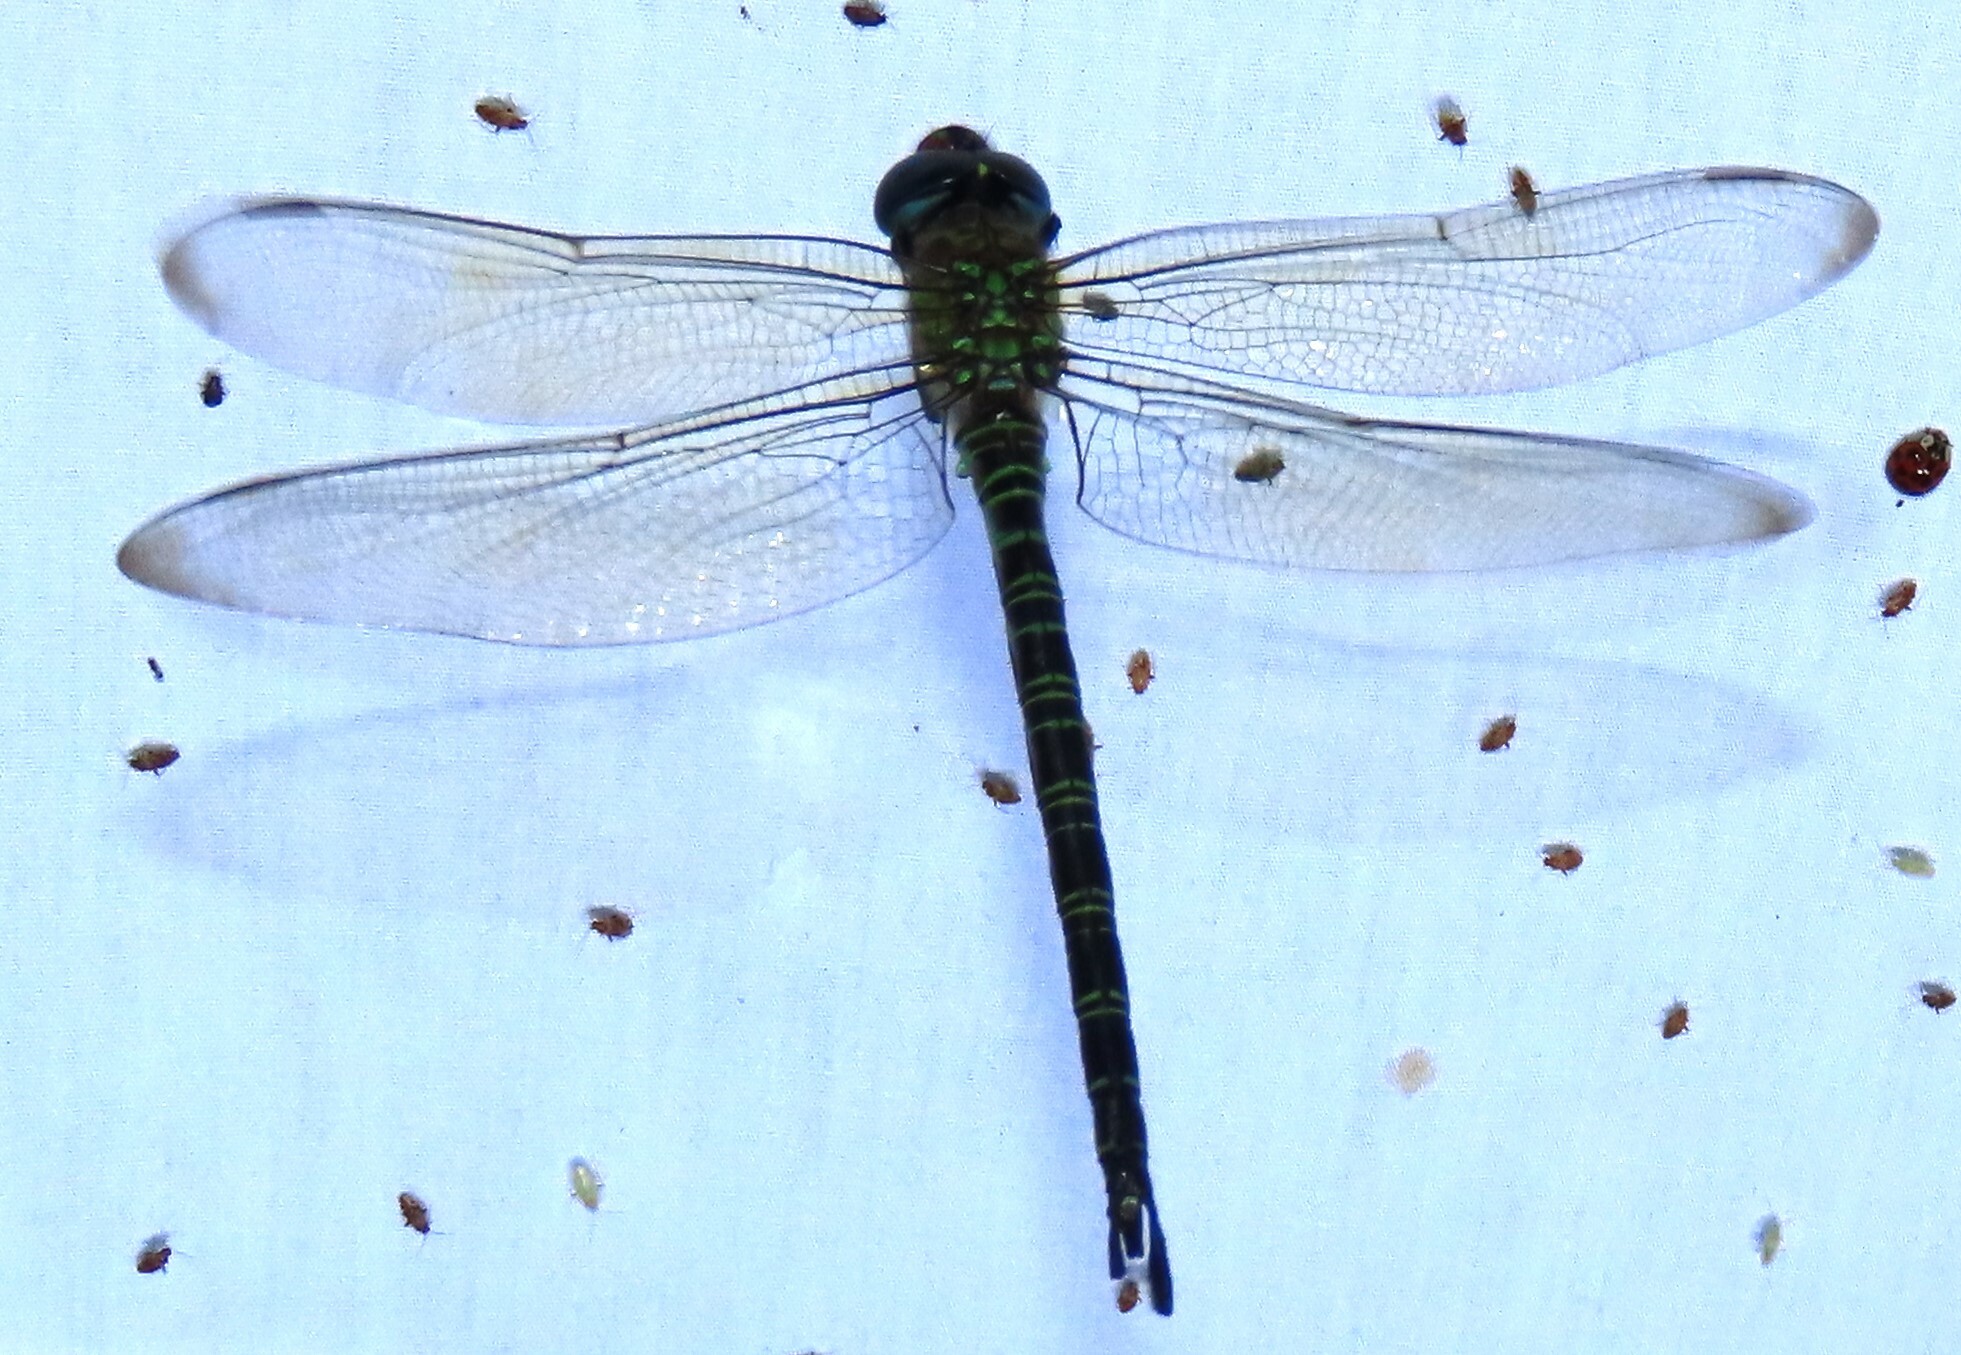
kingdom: Animalia
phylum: Arthropoda
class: Insecta
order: Odonata
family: Aeshnidae
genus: Epiaeschna
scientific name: Epiaeschna heros
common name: Swamp darner
